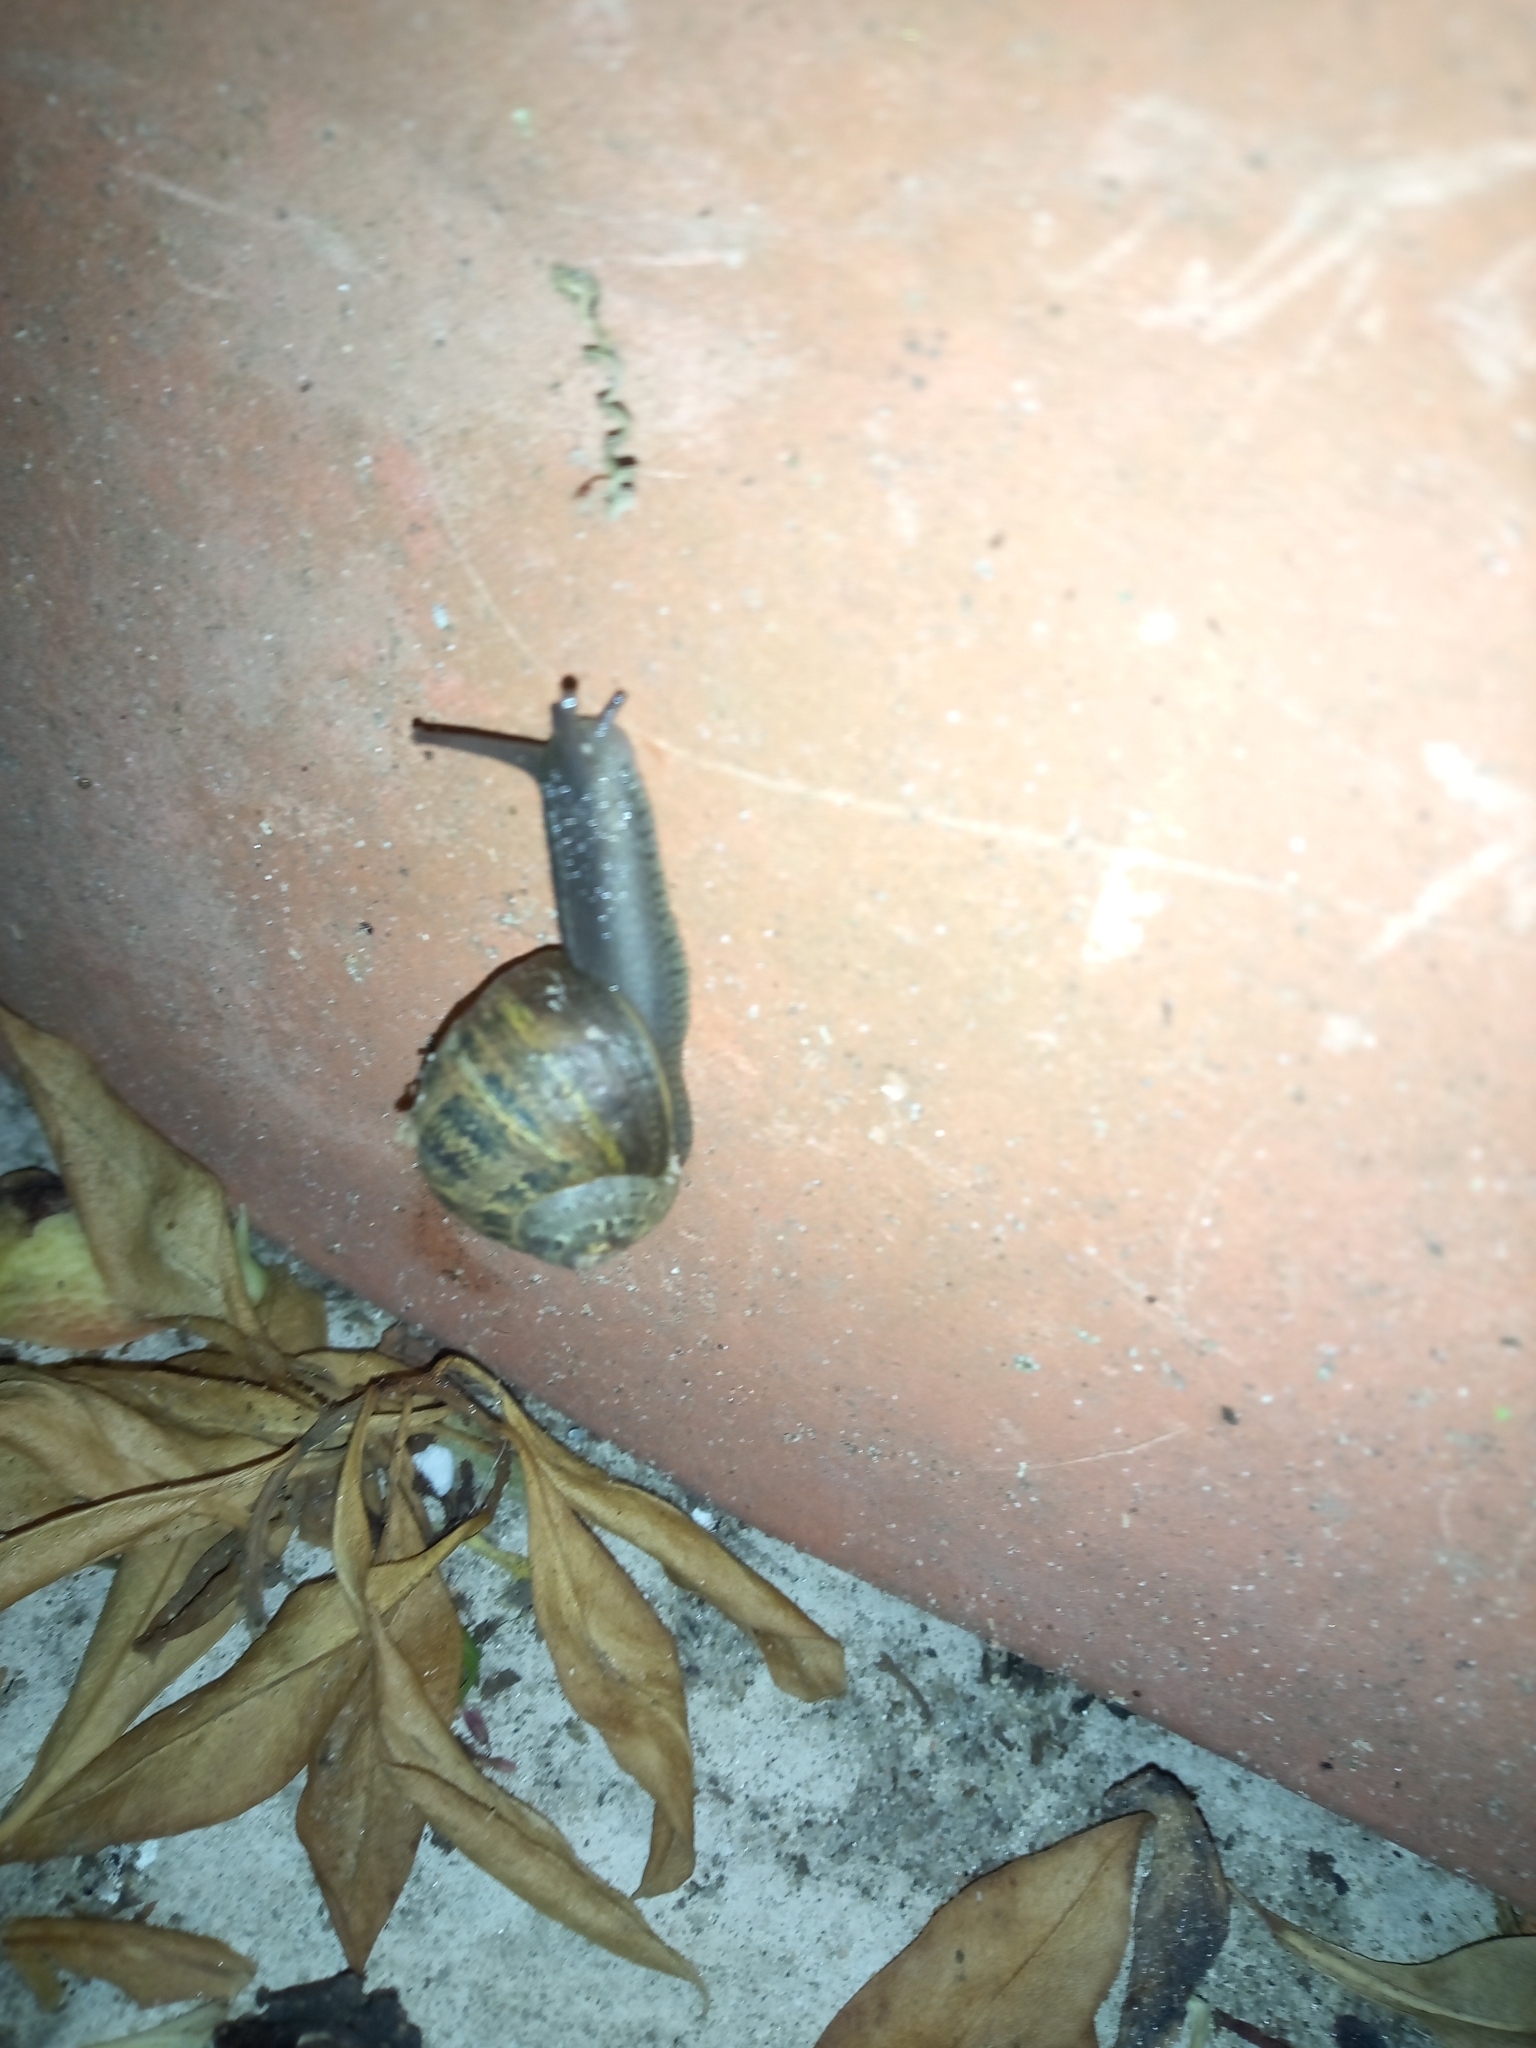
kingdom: Animalia
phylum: Mollusca
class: Gastropoda
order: Stylommatophora
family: Helicidae
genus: Cornu
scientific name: Cornu aspersum
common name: Brown garden snail
